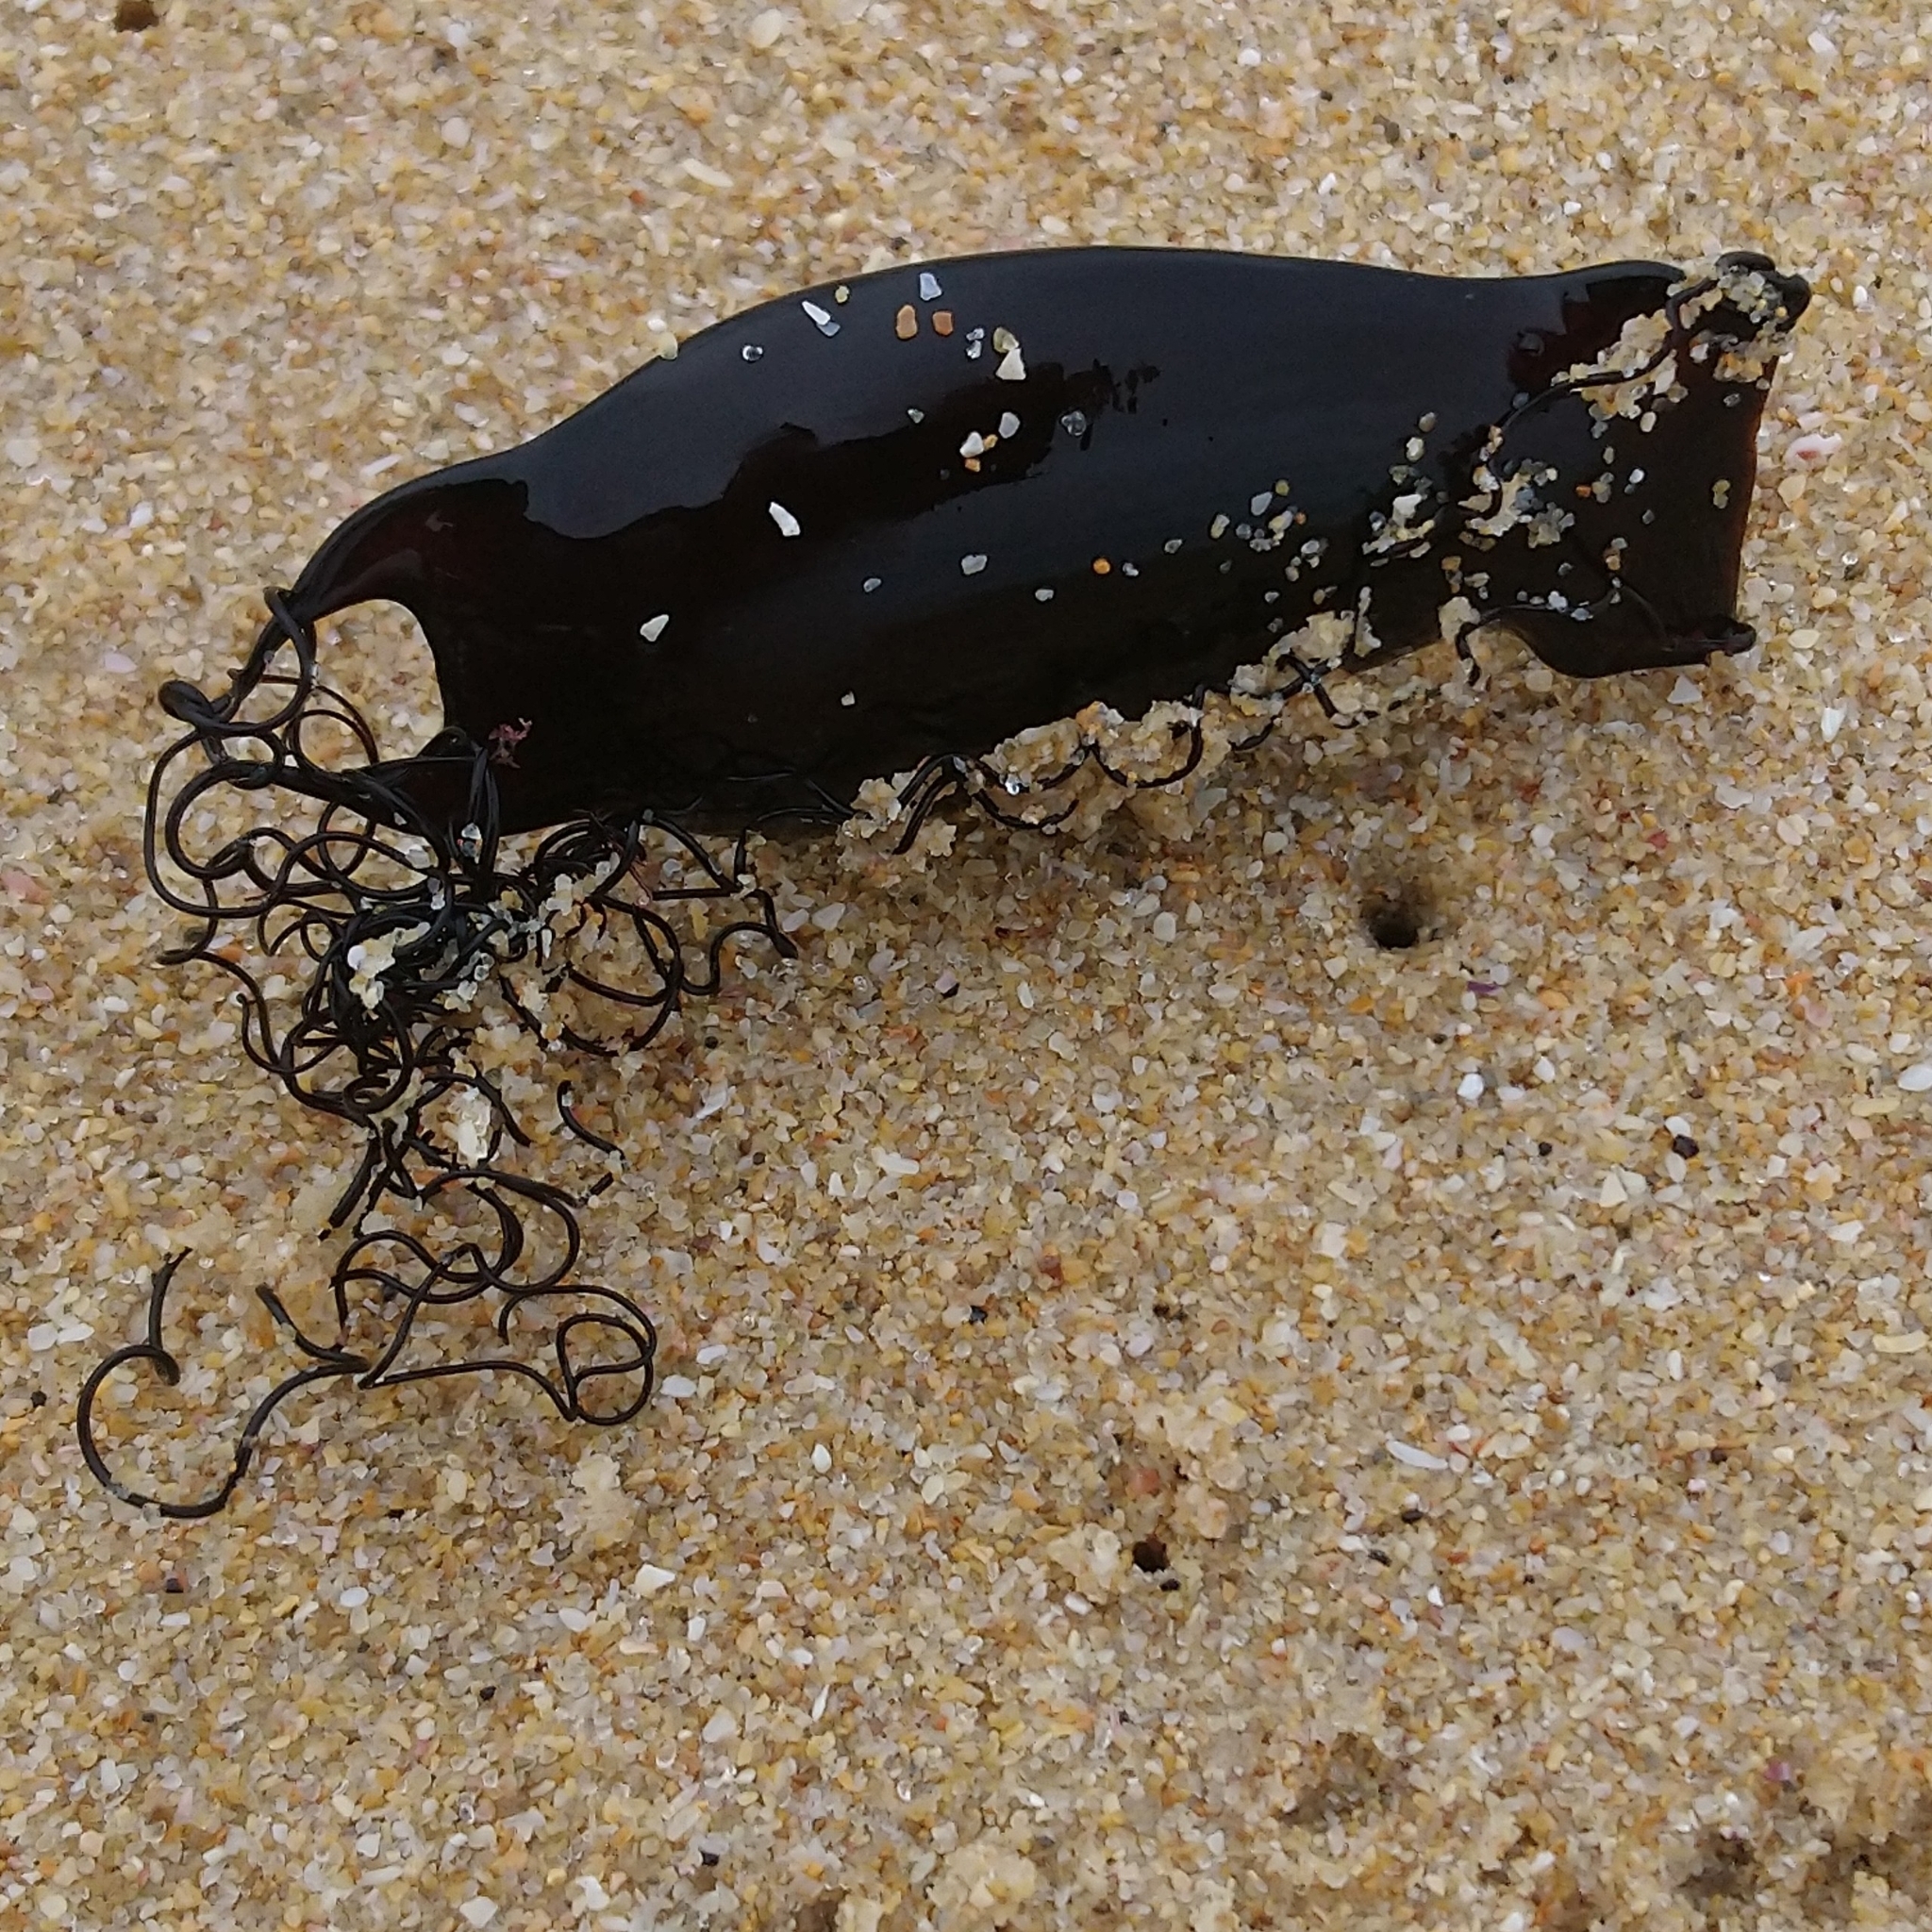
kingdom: Animalia
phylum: Chordata
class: Elasmobranchii
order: Carcharhiniformes
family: Scyliorhinidae
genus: Haploblepharus
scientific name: Haploblepharus pictus
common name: Dark shyshark
